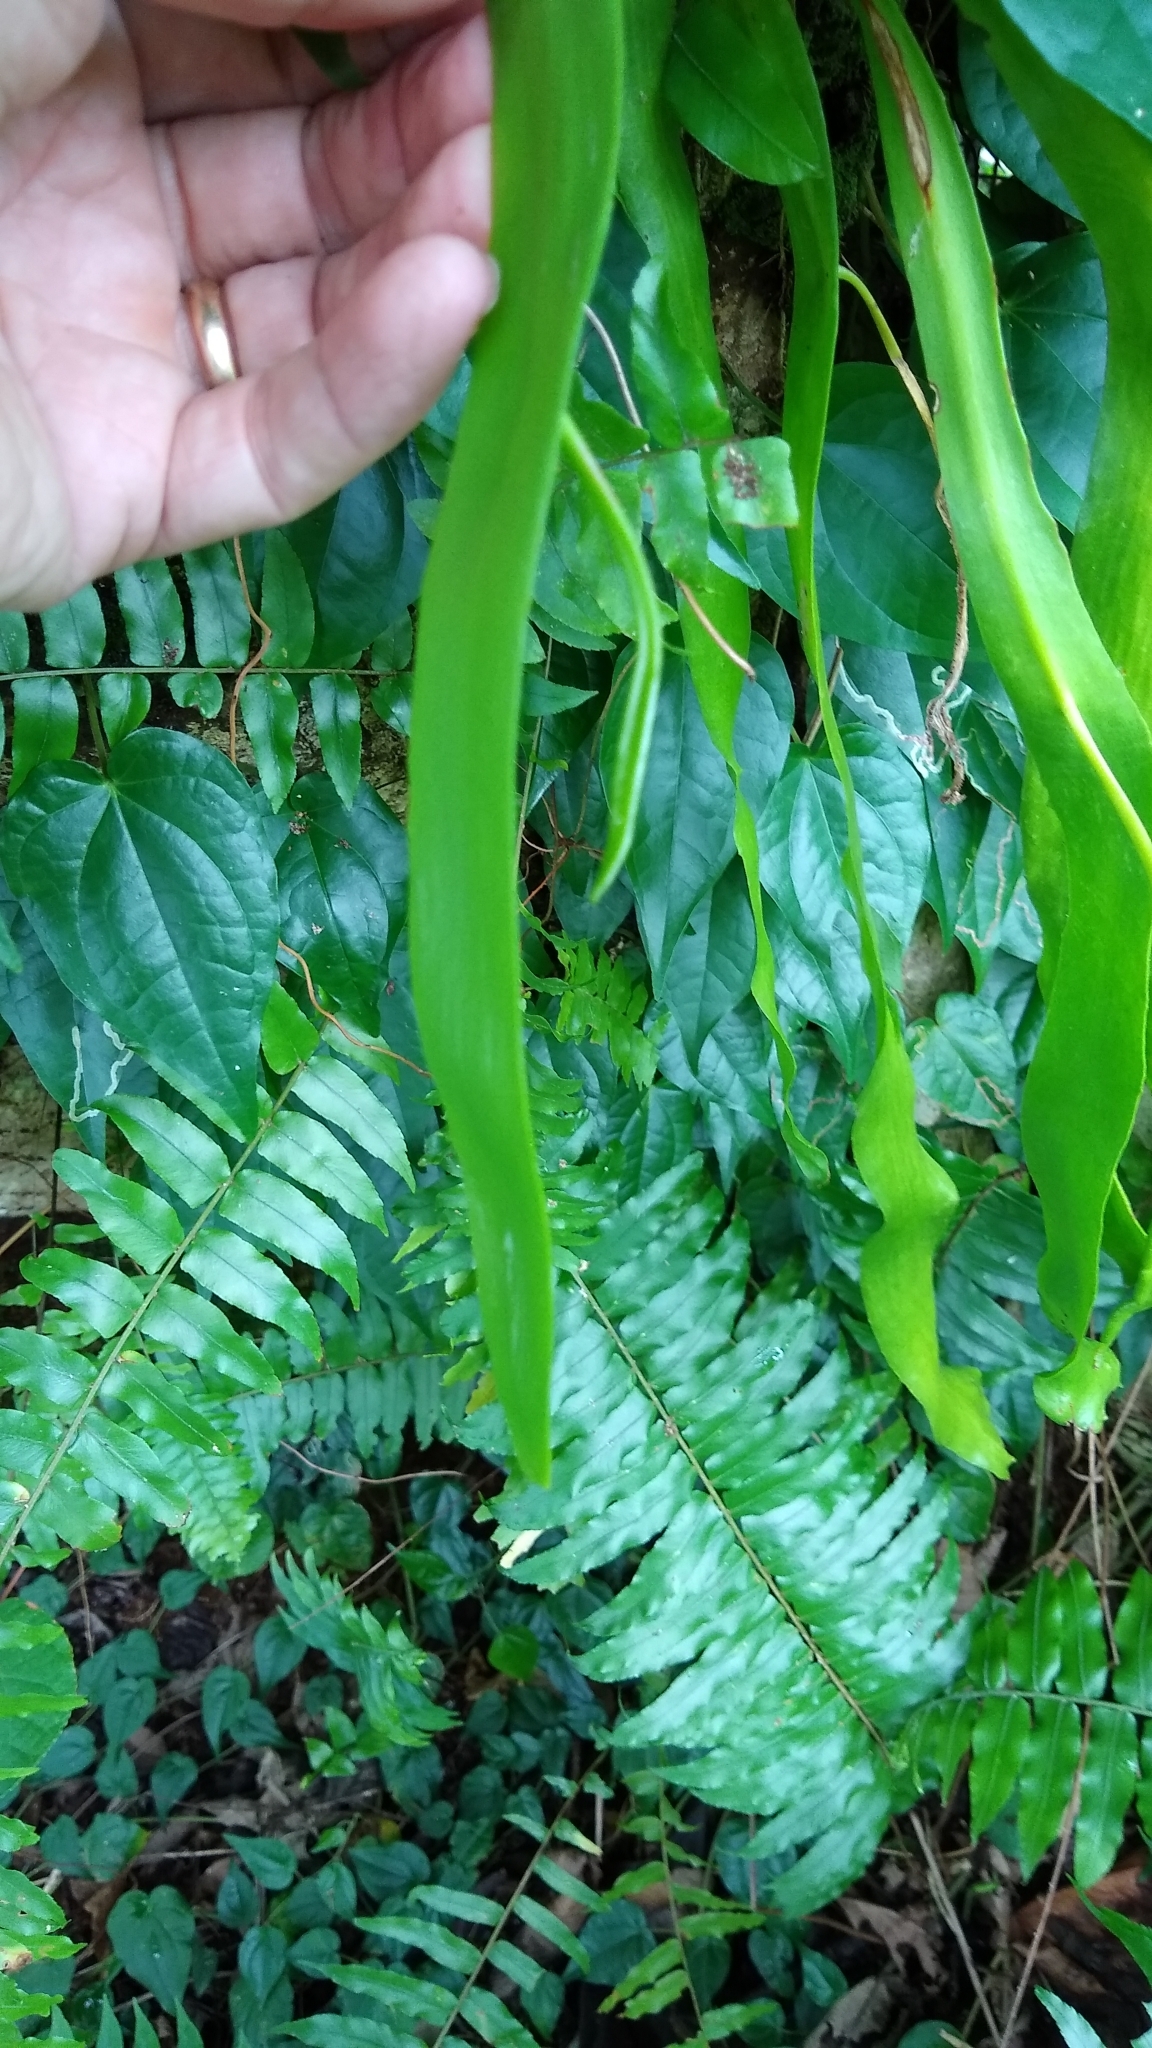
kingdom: Plantae
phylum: Tracheophyta
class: Polypodiopsida
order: Ophioglossales
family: Ophioglossaceae
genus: Ophioderma
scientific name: Ophioderma pendulum
